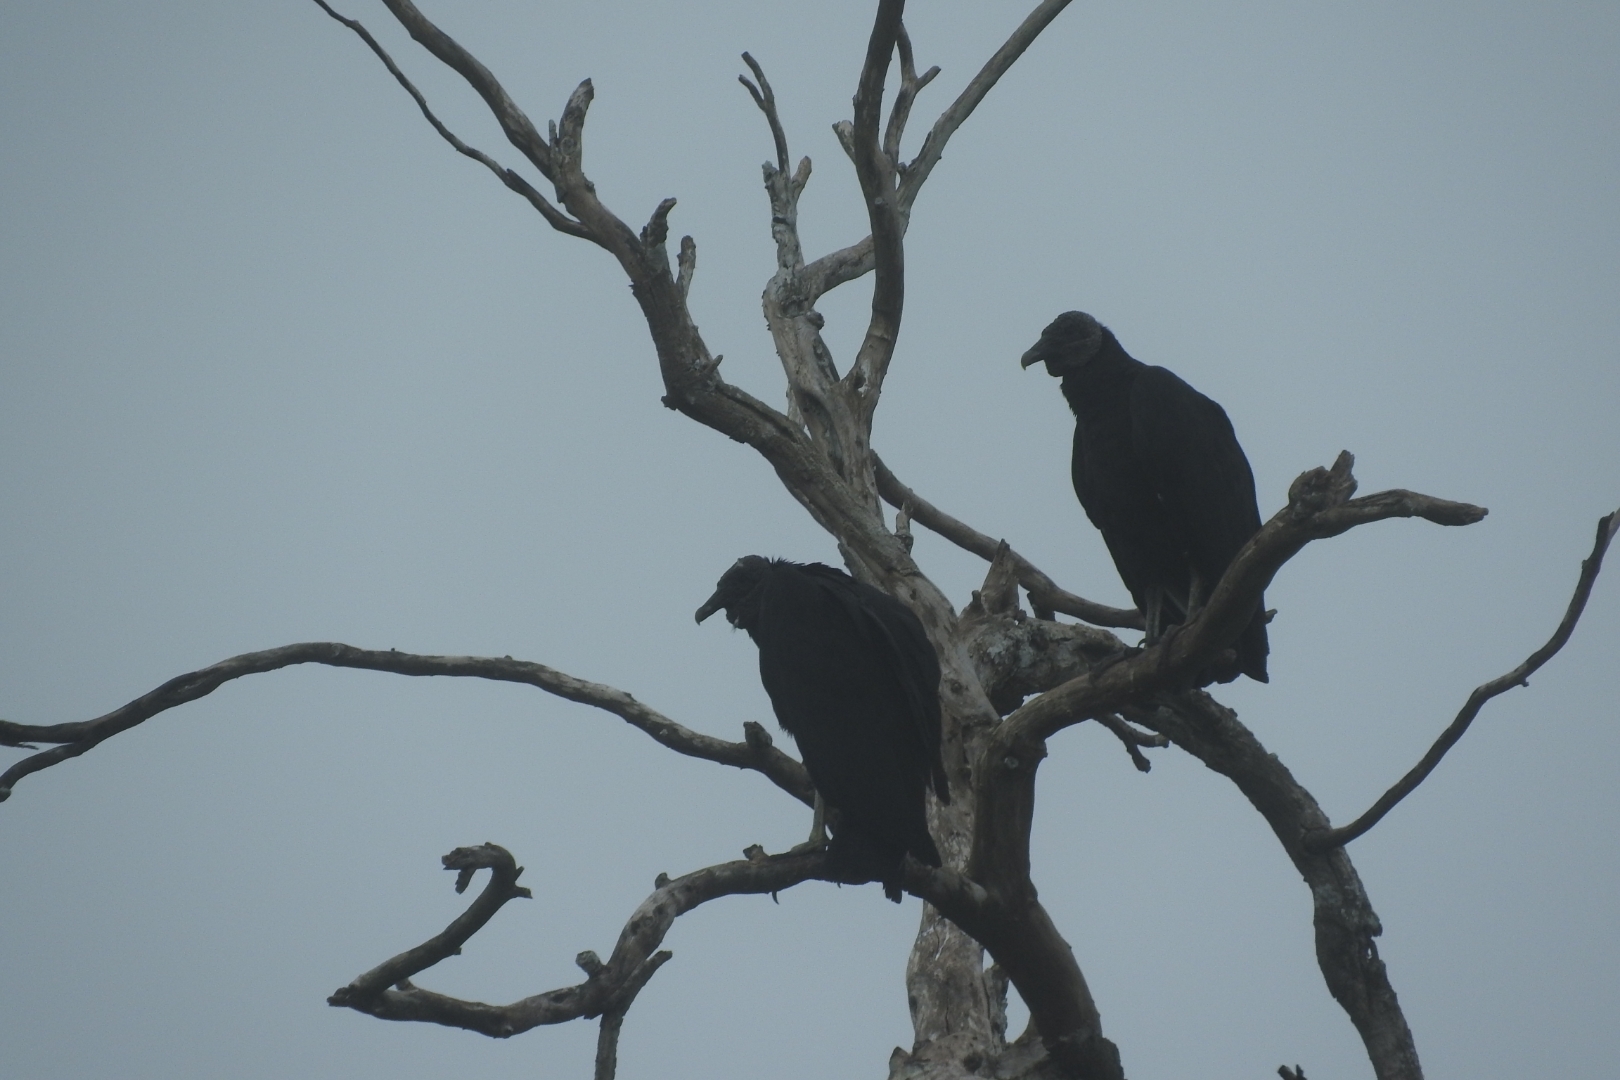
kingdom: Animalia
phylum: Chordata
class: Aves
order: Accipitriformes
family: Cathartidae
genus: Coragyps
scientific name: Coragyps atratus
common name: Black vulture
